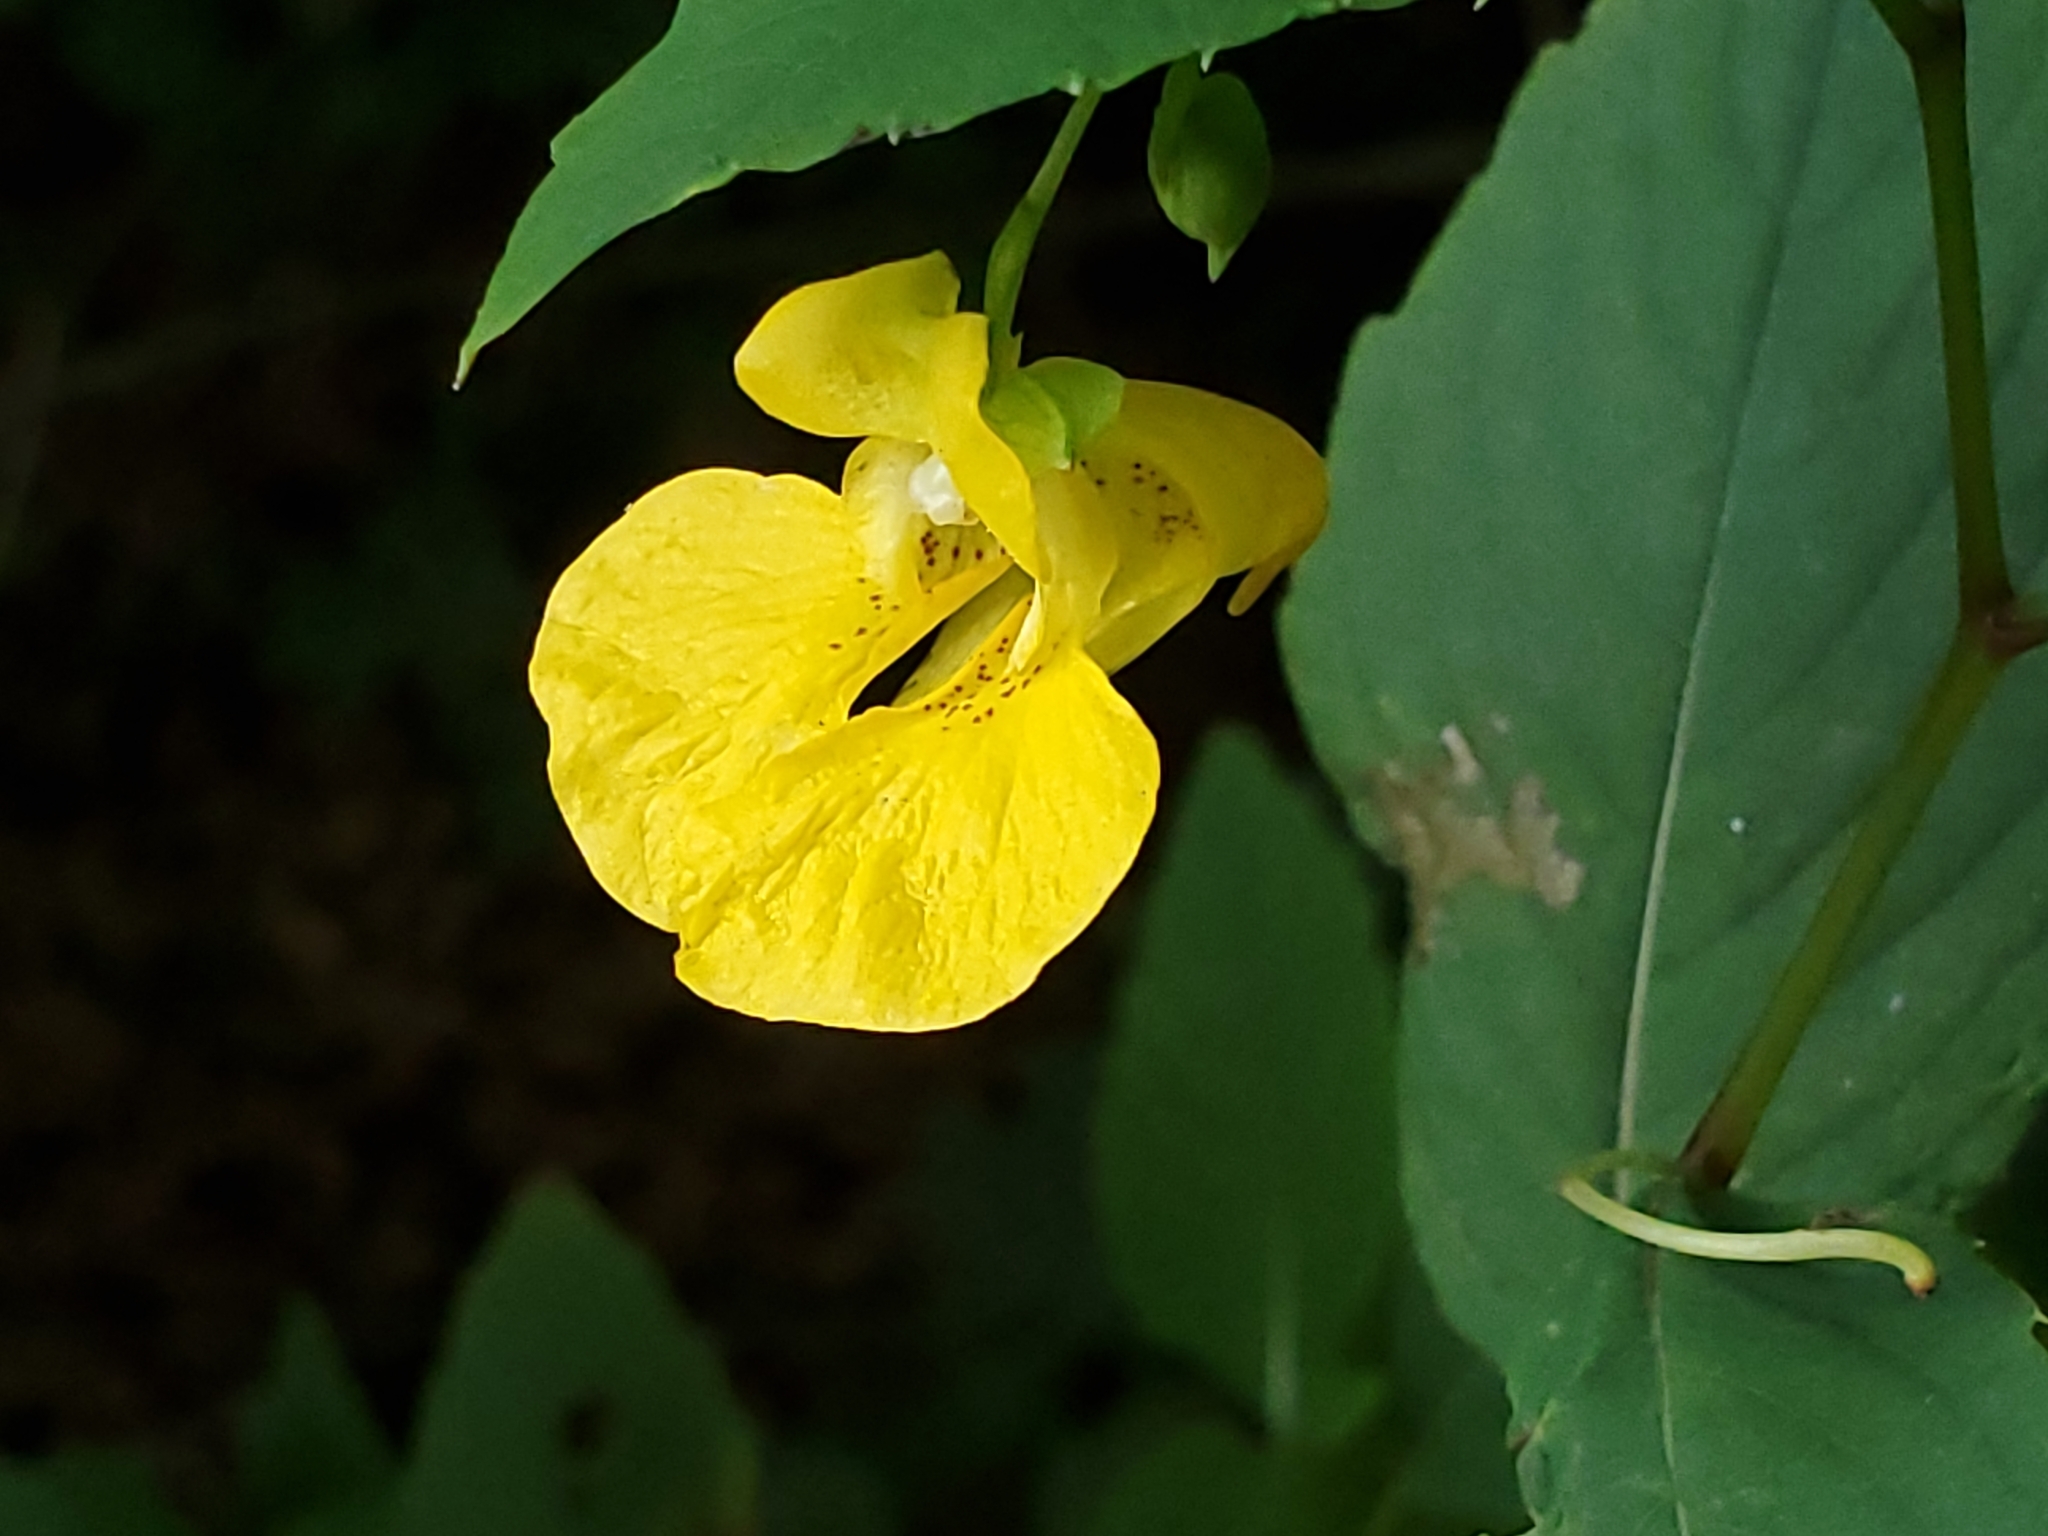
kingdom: Plantae
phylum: Tracheophyta
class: Magnoliopsida
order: Ericales
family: Balsaminaceae
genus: Impatiens
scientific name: Impatiens pallida
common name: Pale snapweed
